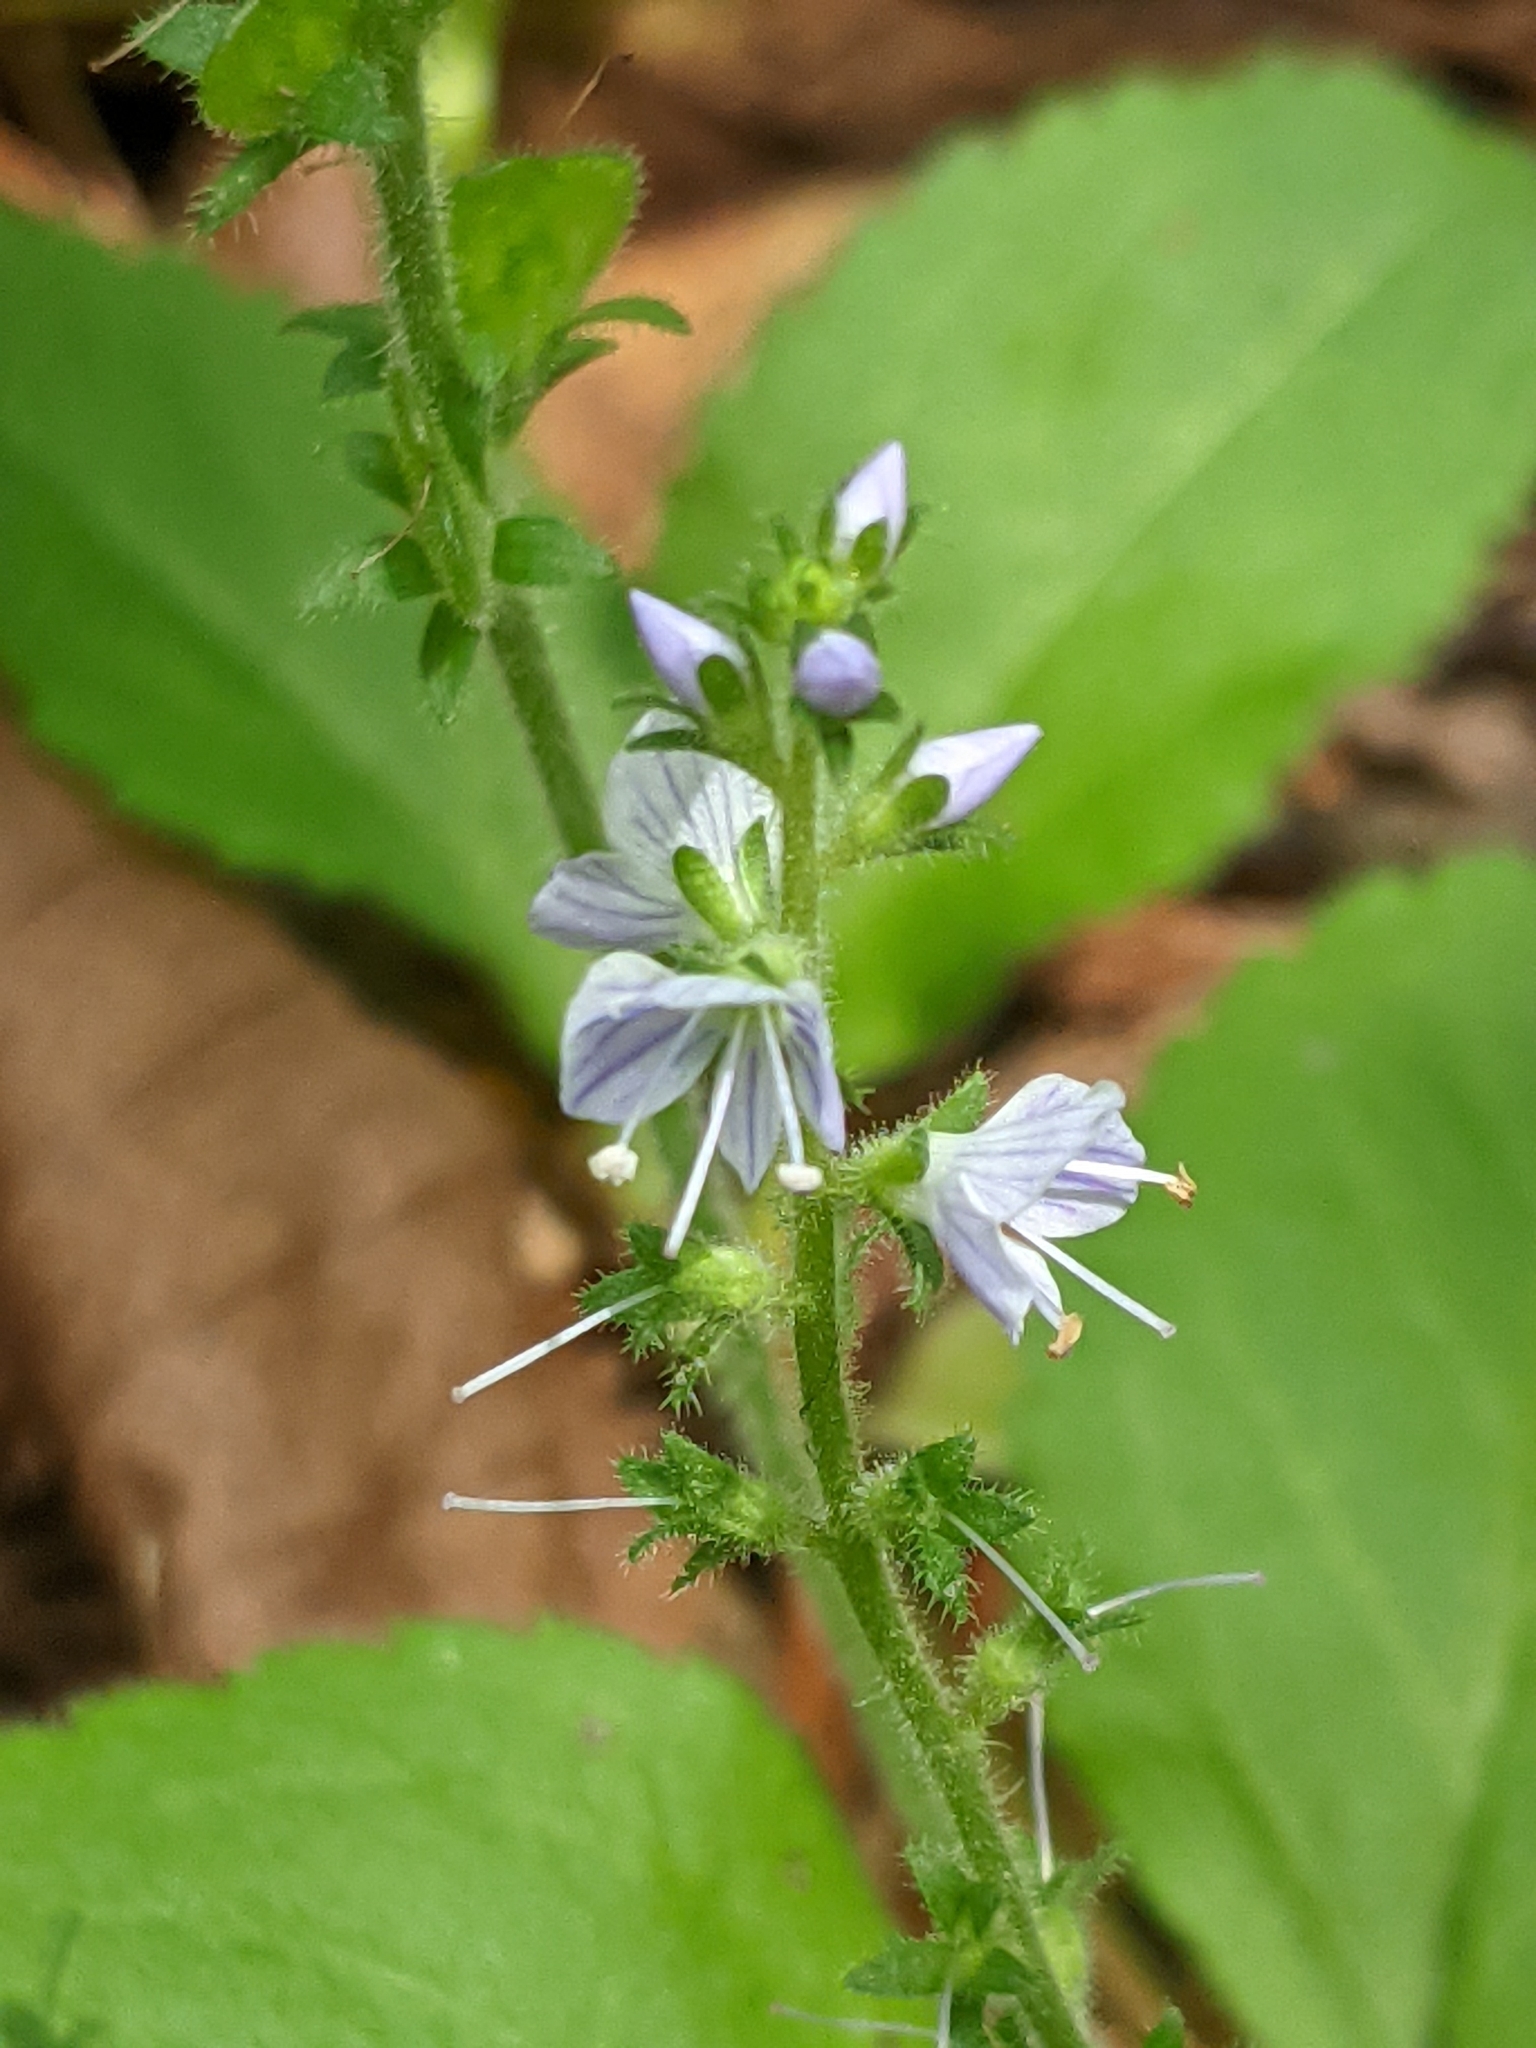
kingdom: Plantae
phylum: Tracheophyta
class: Magnoliopsida
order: Lamiales
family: Plantaginaceae
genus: Veronica
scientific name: Veronica officinalis
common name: Common speedwell
